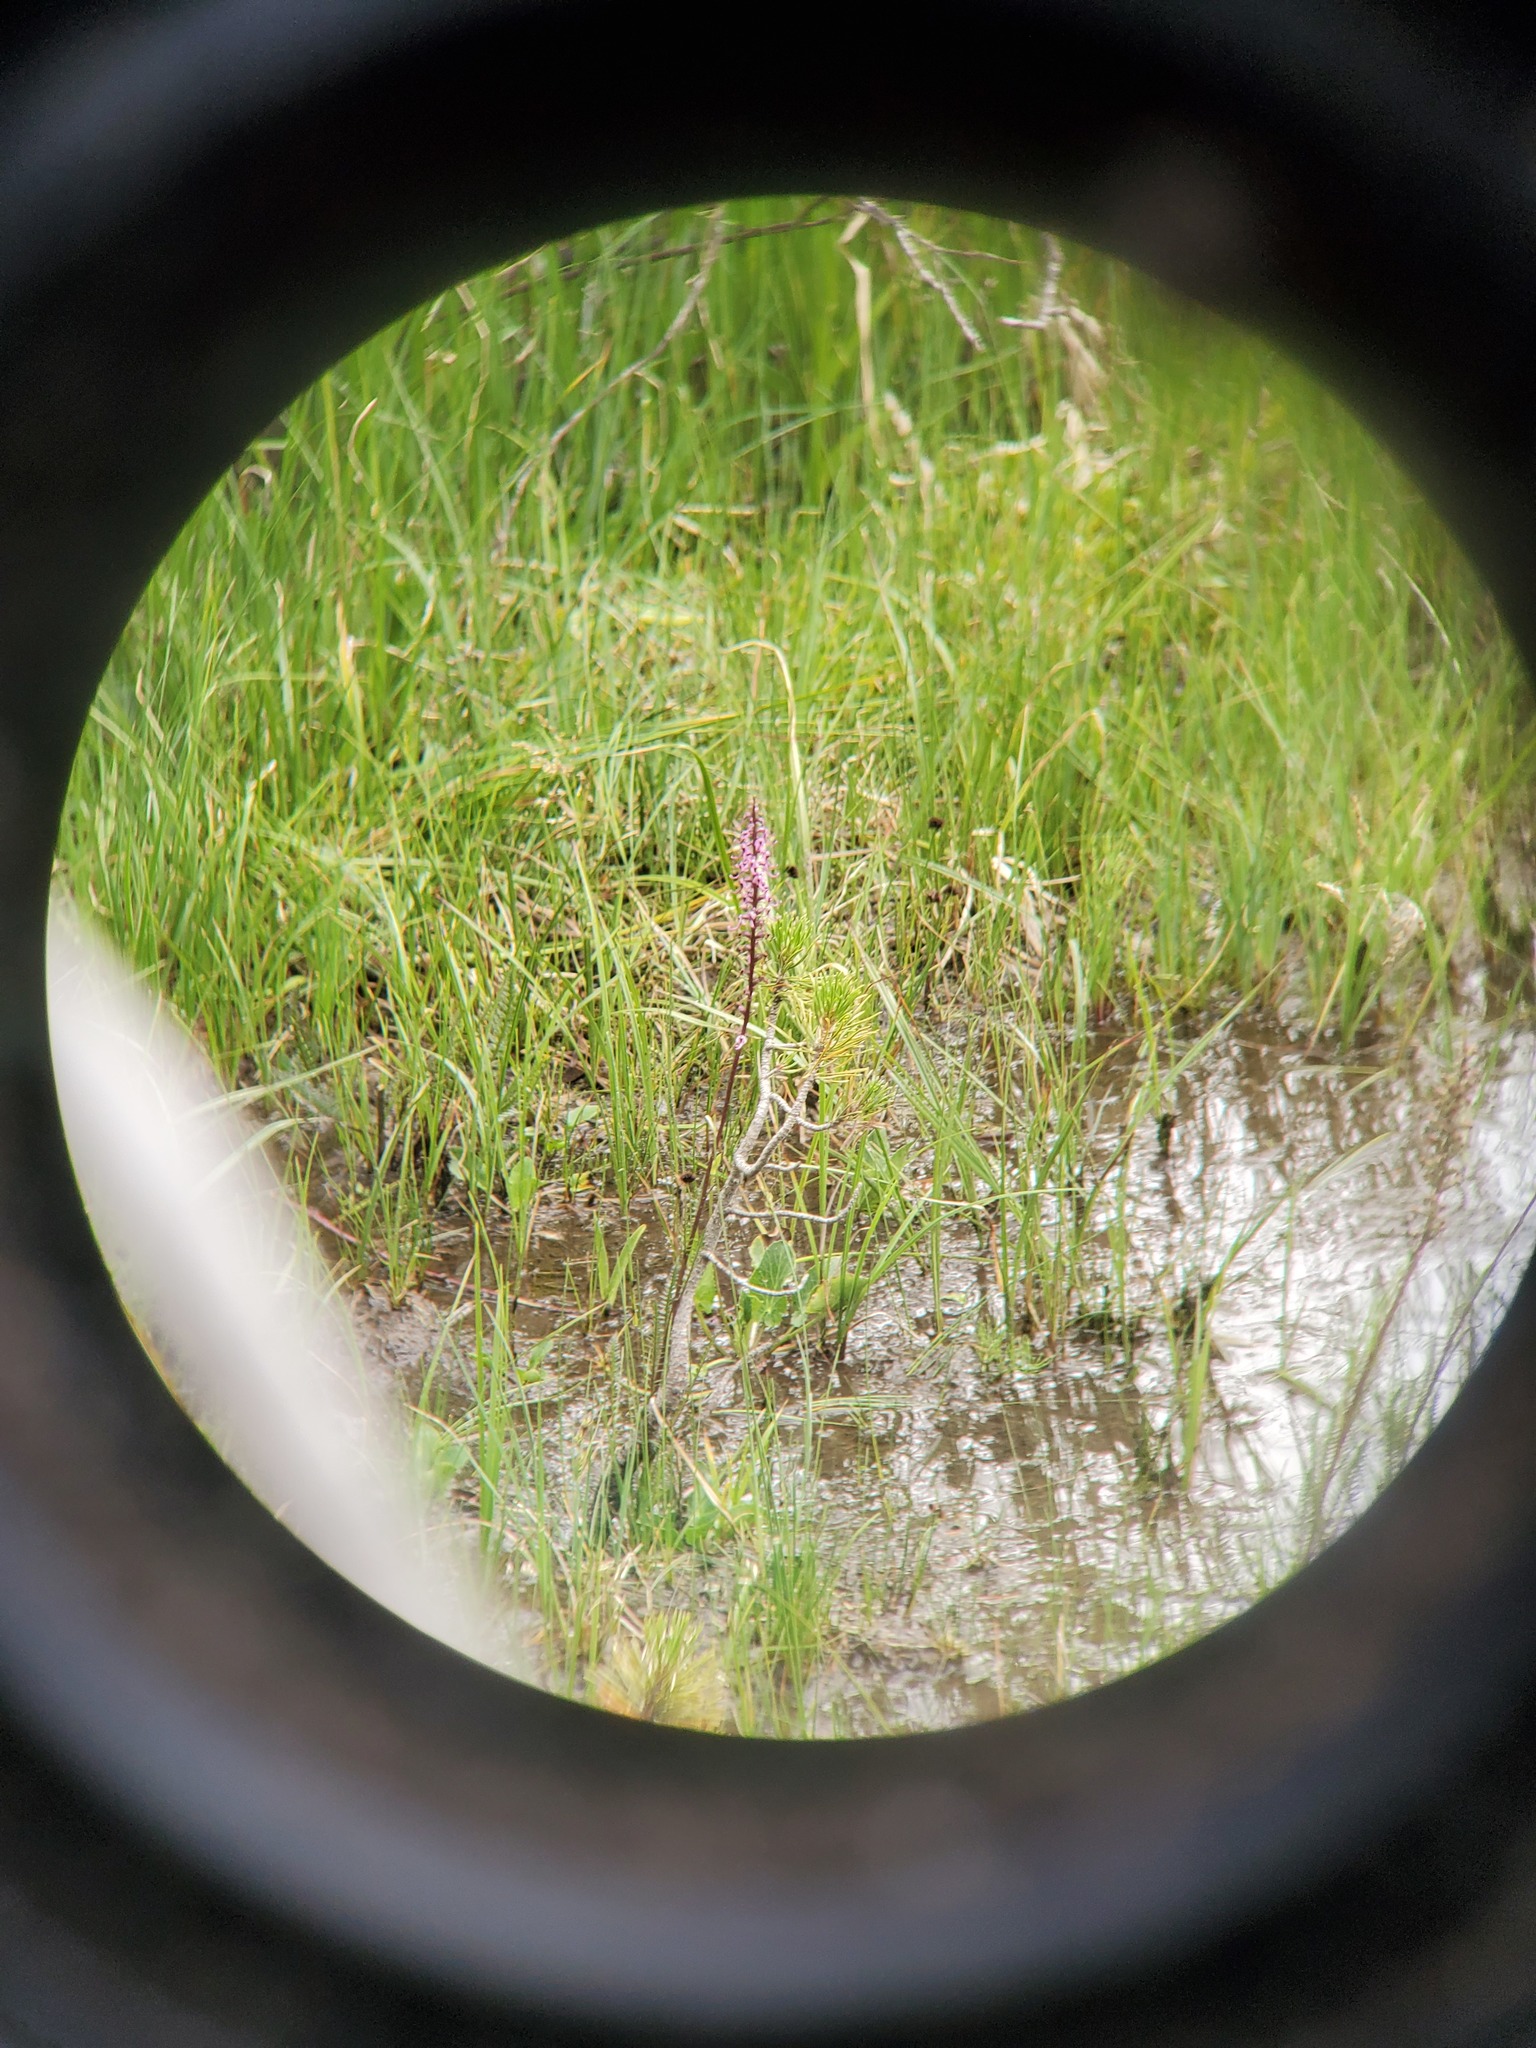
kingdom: Plantae
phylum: Tracheophyta
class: Magnoliopsida
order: Lamiales
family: Orobanchaceae
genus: Pedicularis
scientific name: Pedicularis groenlandica
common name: Elephant's-head
